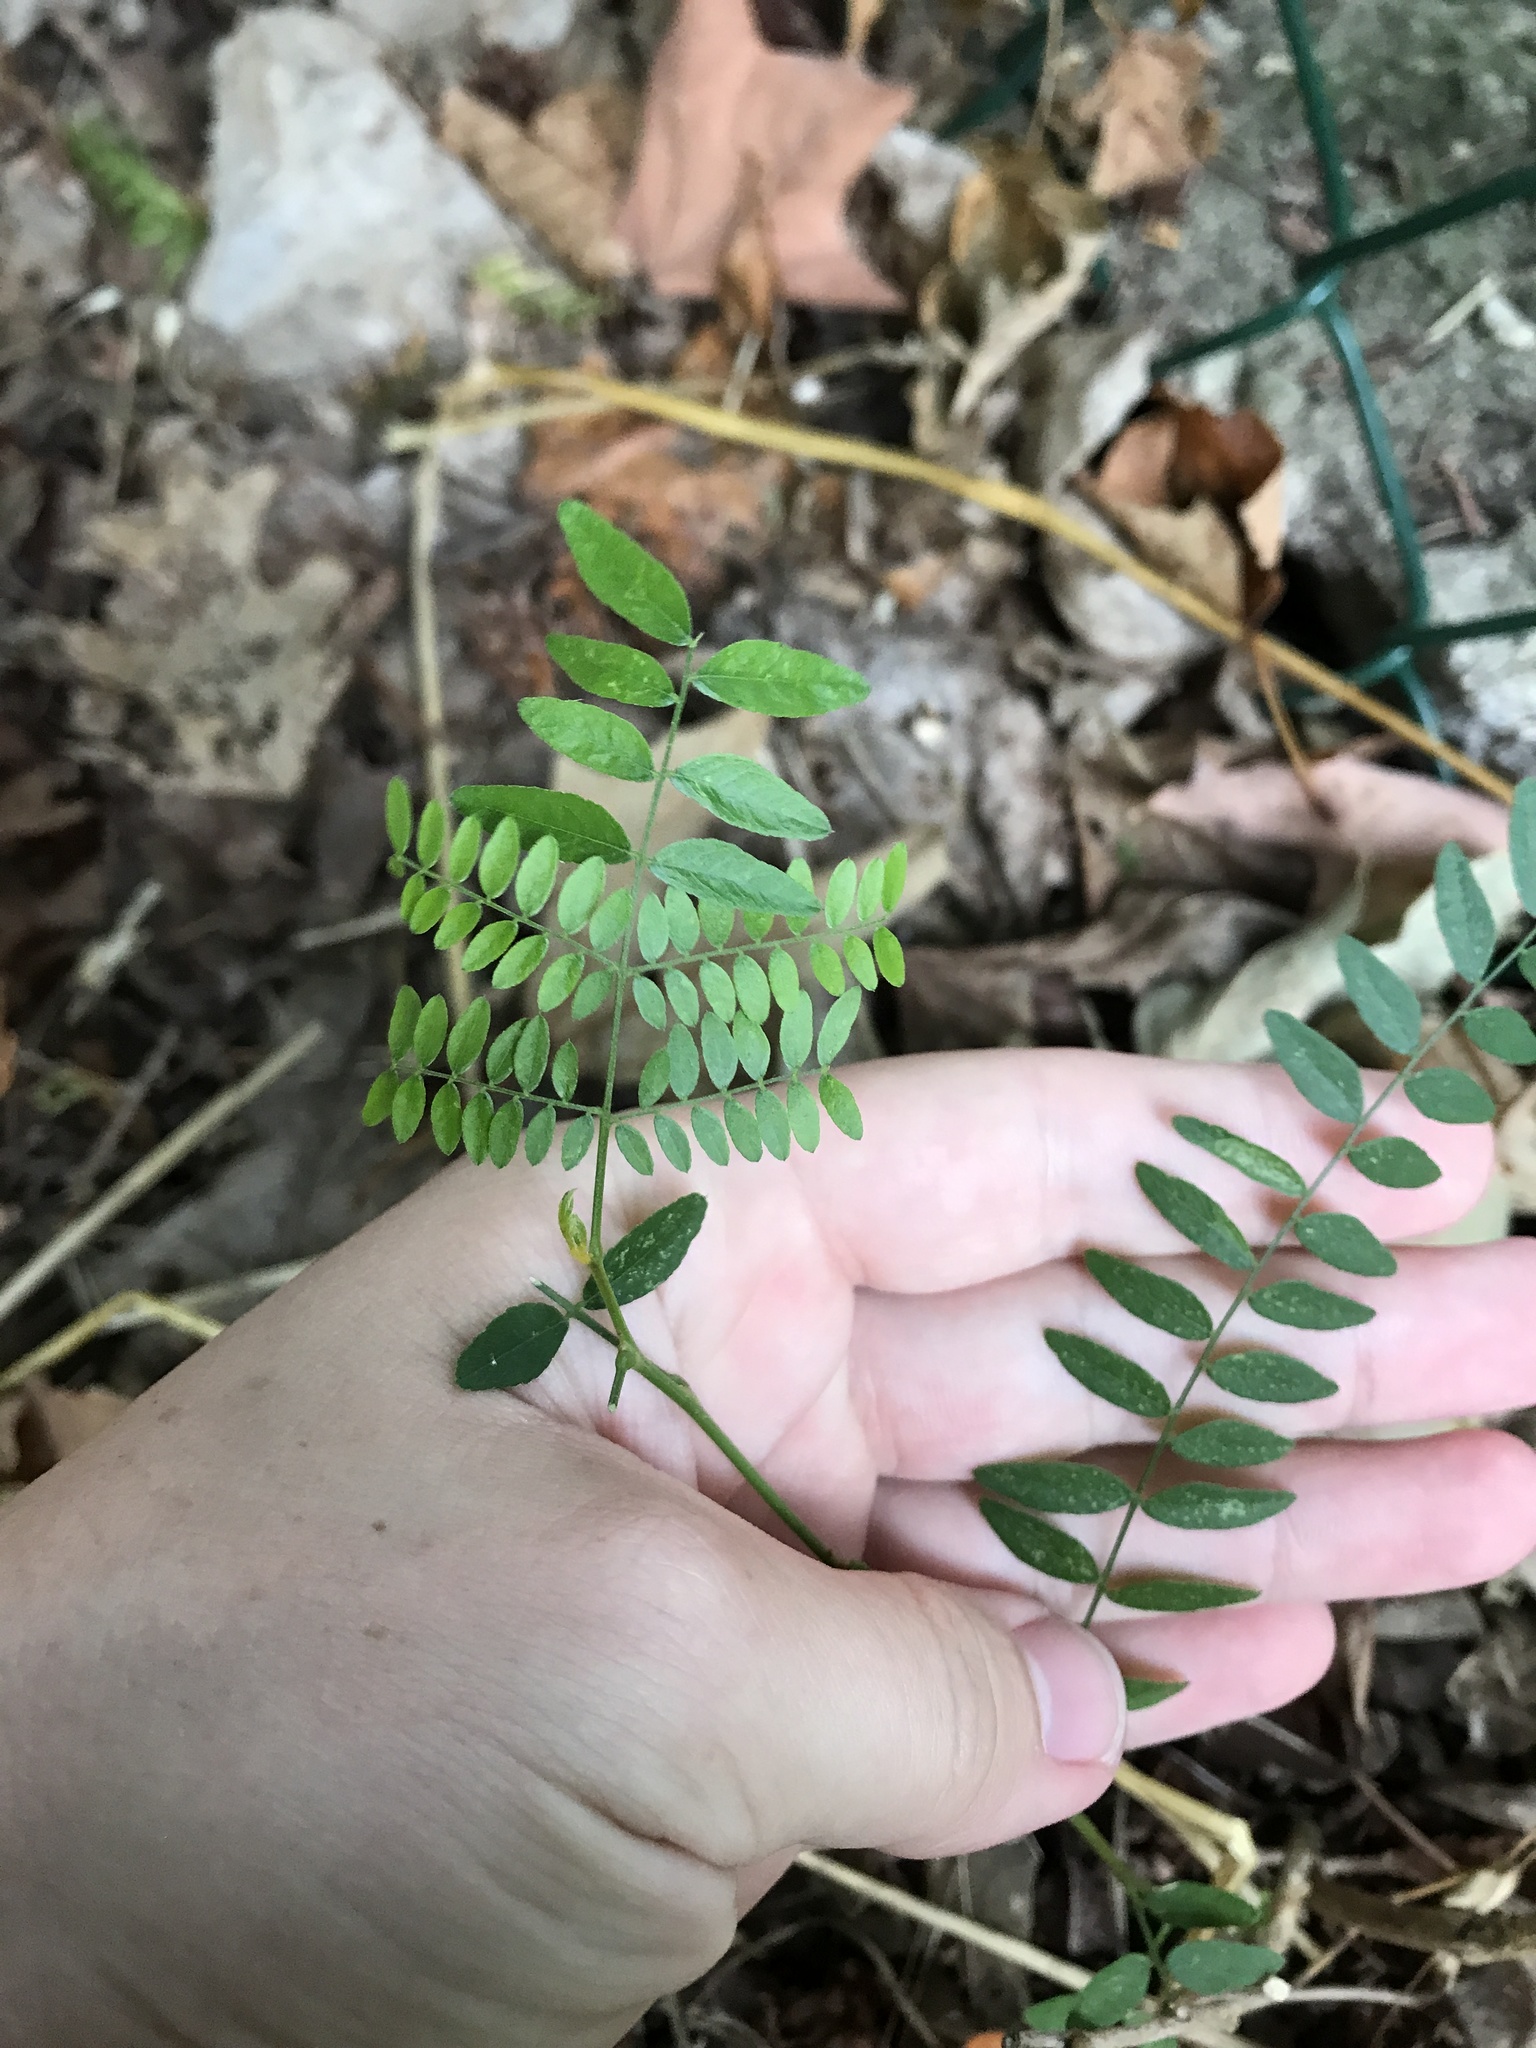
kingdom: Plantae
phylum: Tracheophyta
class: Magnoliopsida
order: Fabales
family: Fabaceae
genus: Gleditsia
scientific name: Gleditsia triacanthos
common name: Common honeylocust
